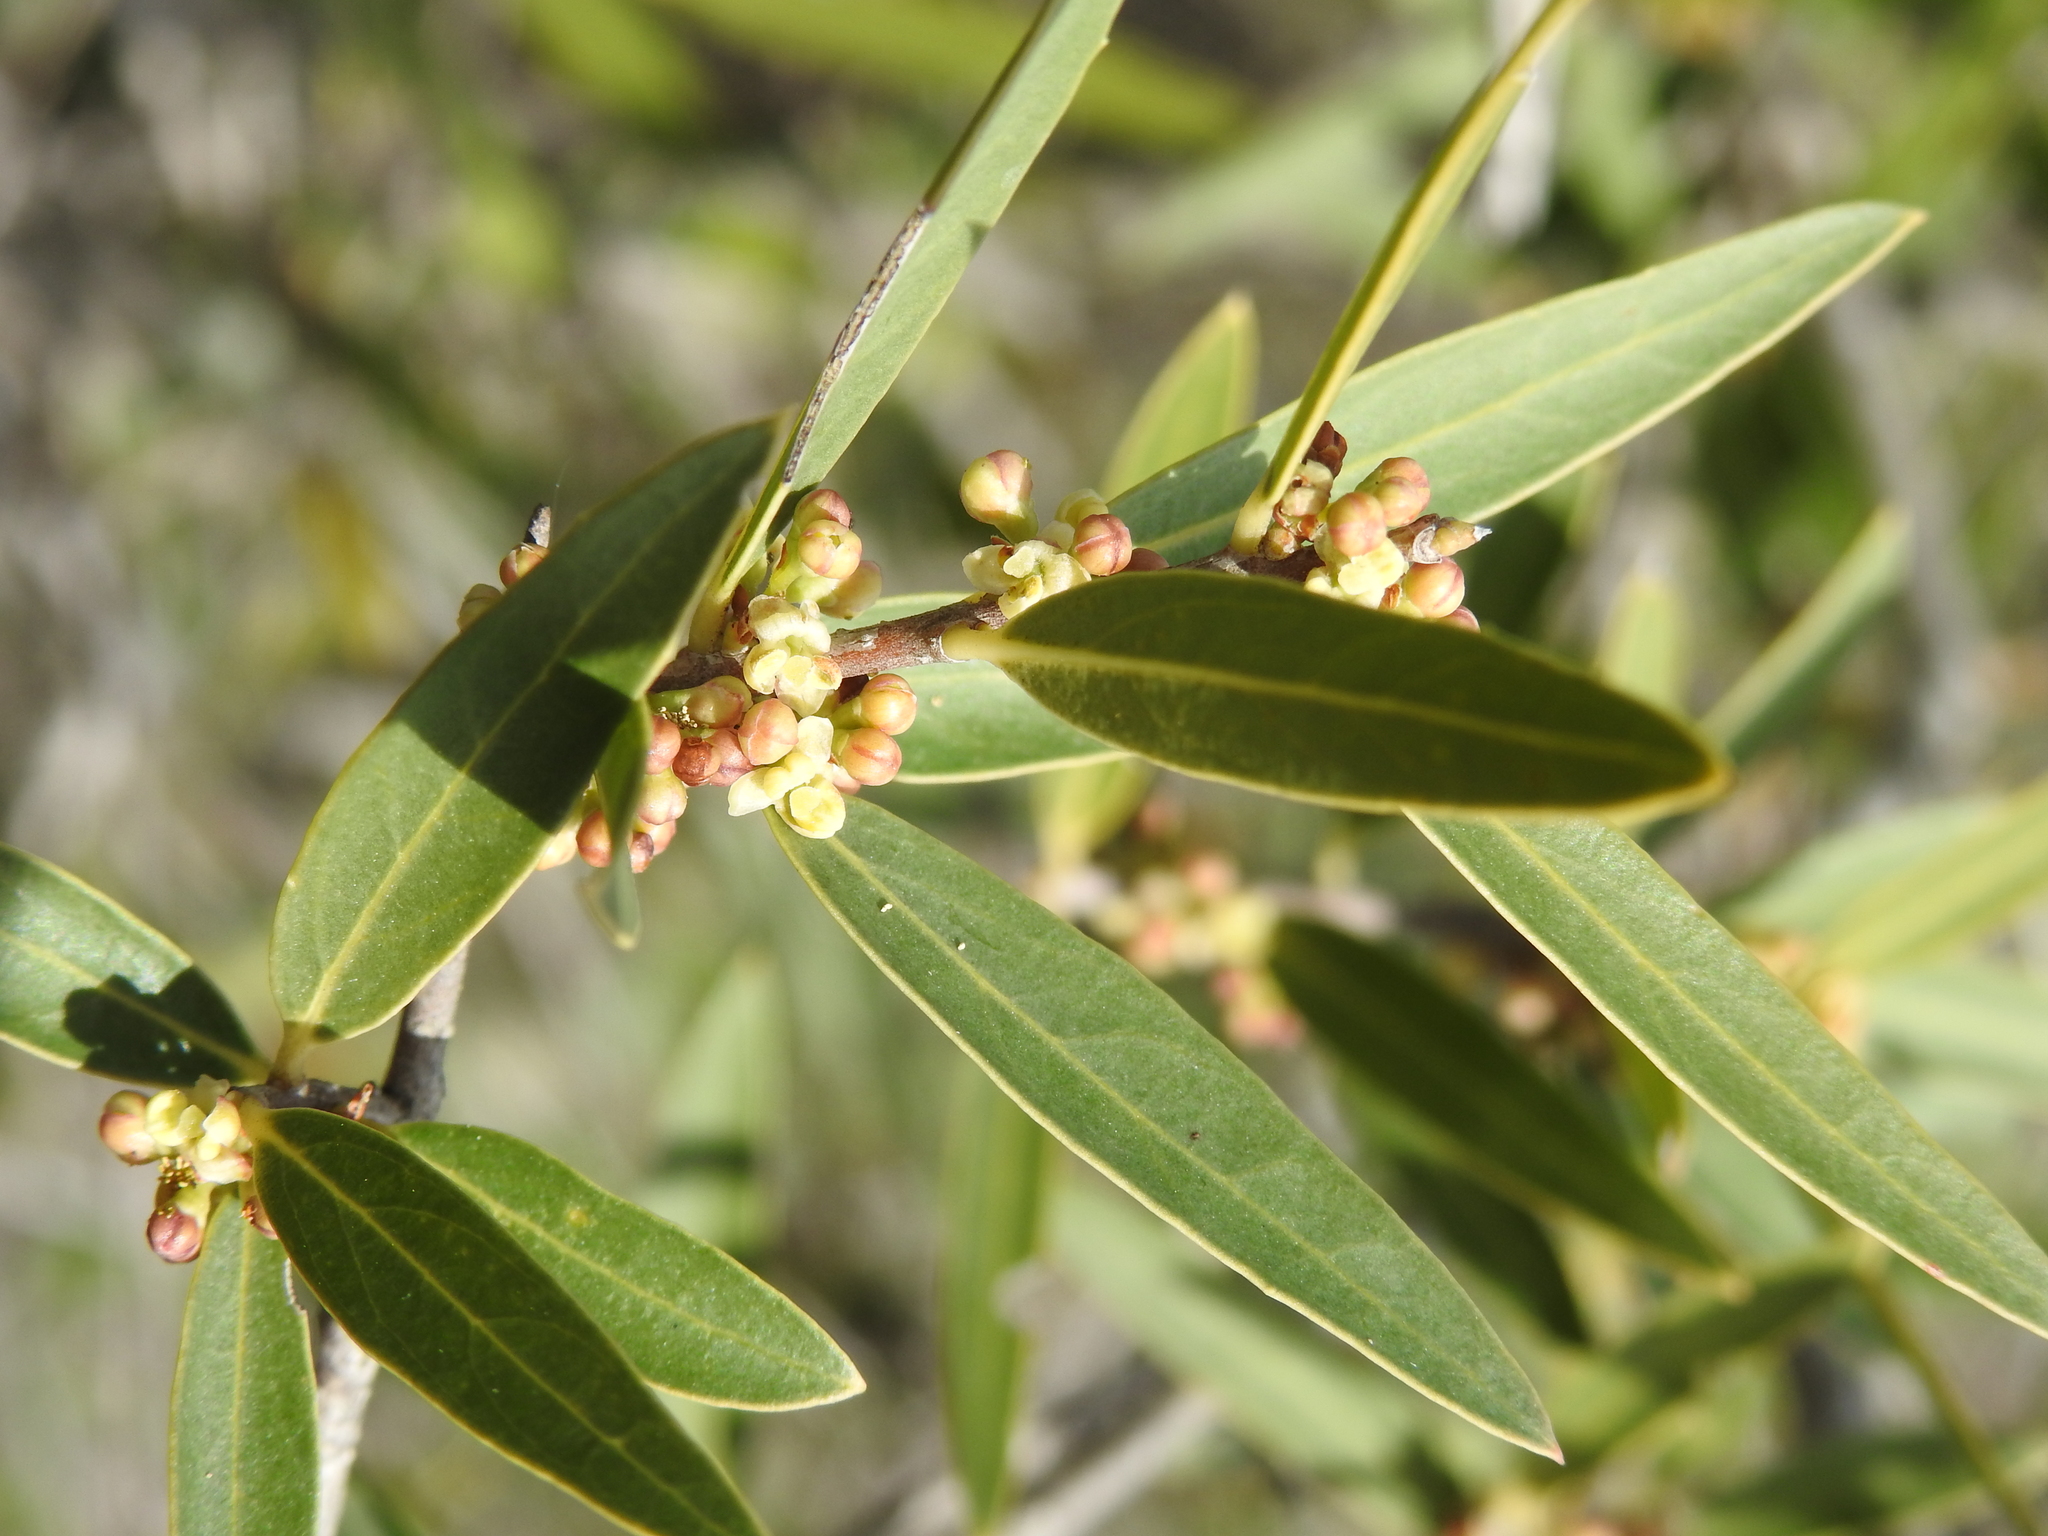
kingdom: Plantae
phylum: Tracheophyta
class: Magnoliopsida
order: Lamiales
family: Oleaceae
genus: Phillyrea
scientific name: Phillyrea angustifolia
